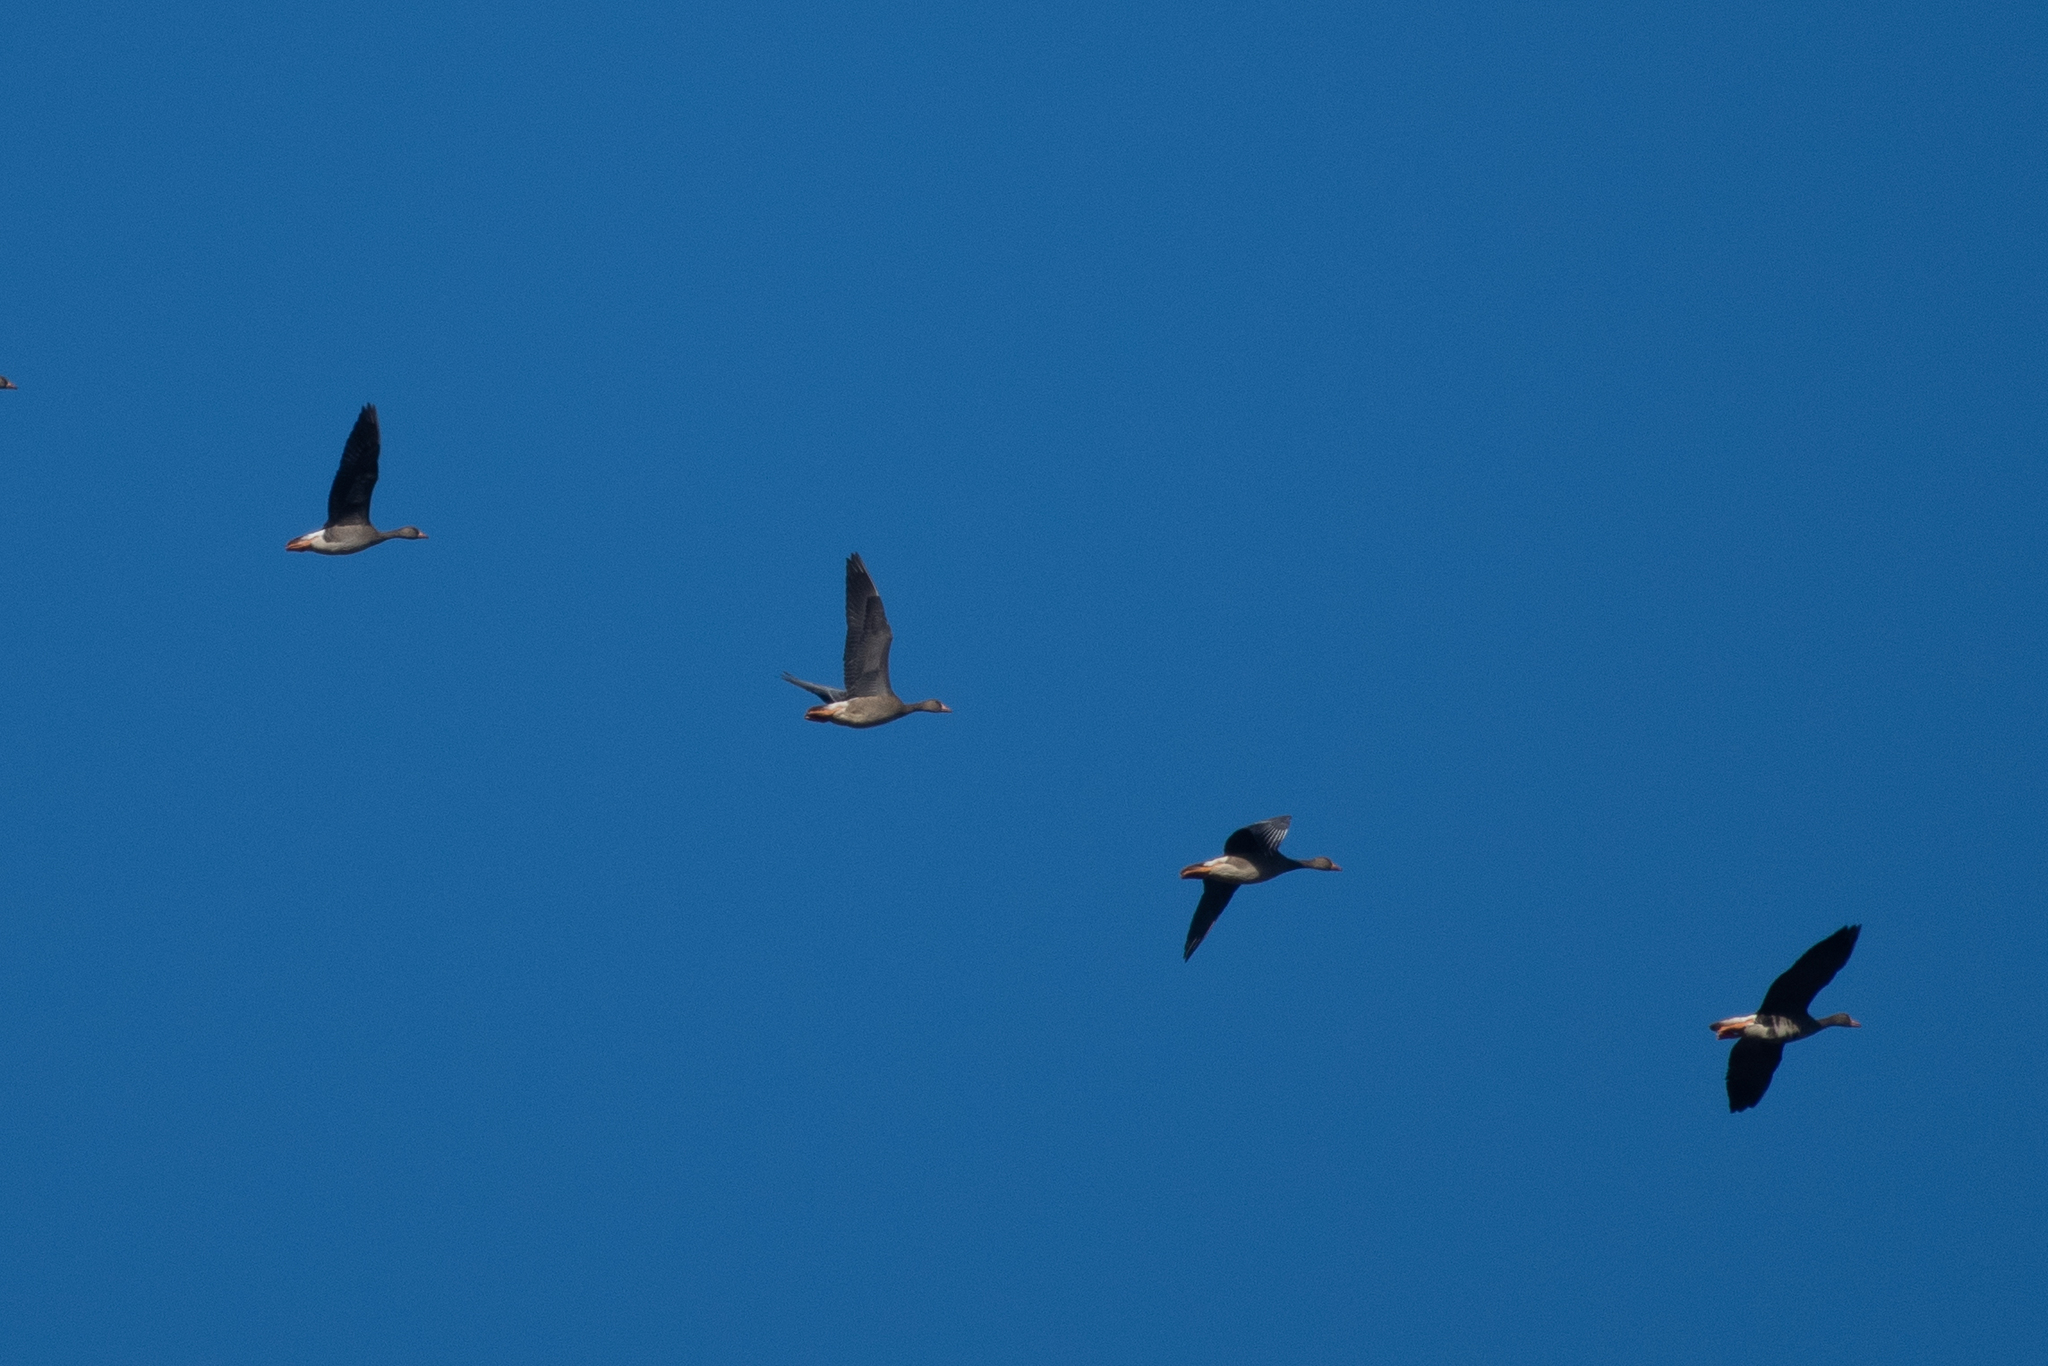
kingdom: Animalia
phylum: Chordata
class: Aves
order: Anseriformes
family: Anatidae
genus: Anser
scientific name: Anser albifrons
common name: Greater white-fronted goose
